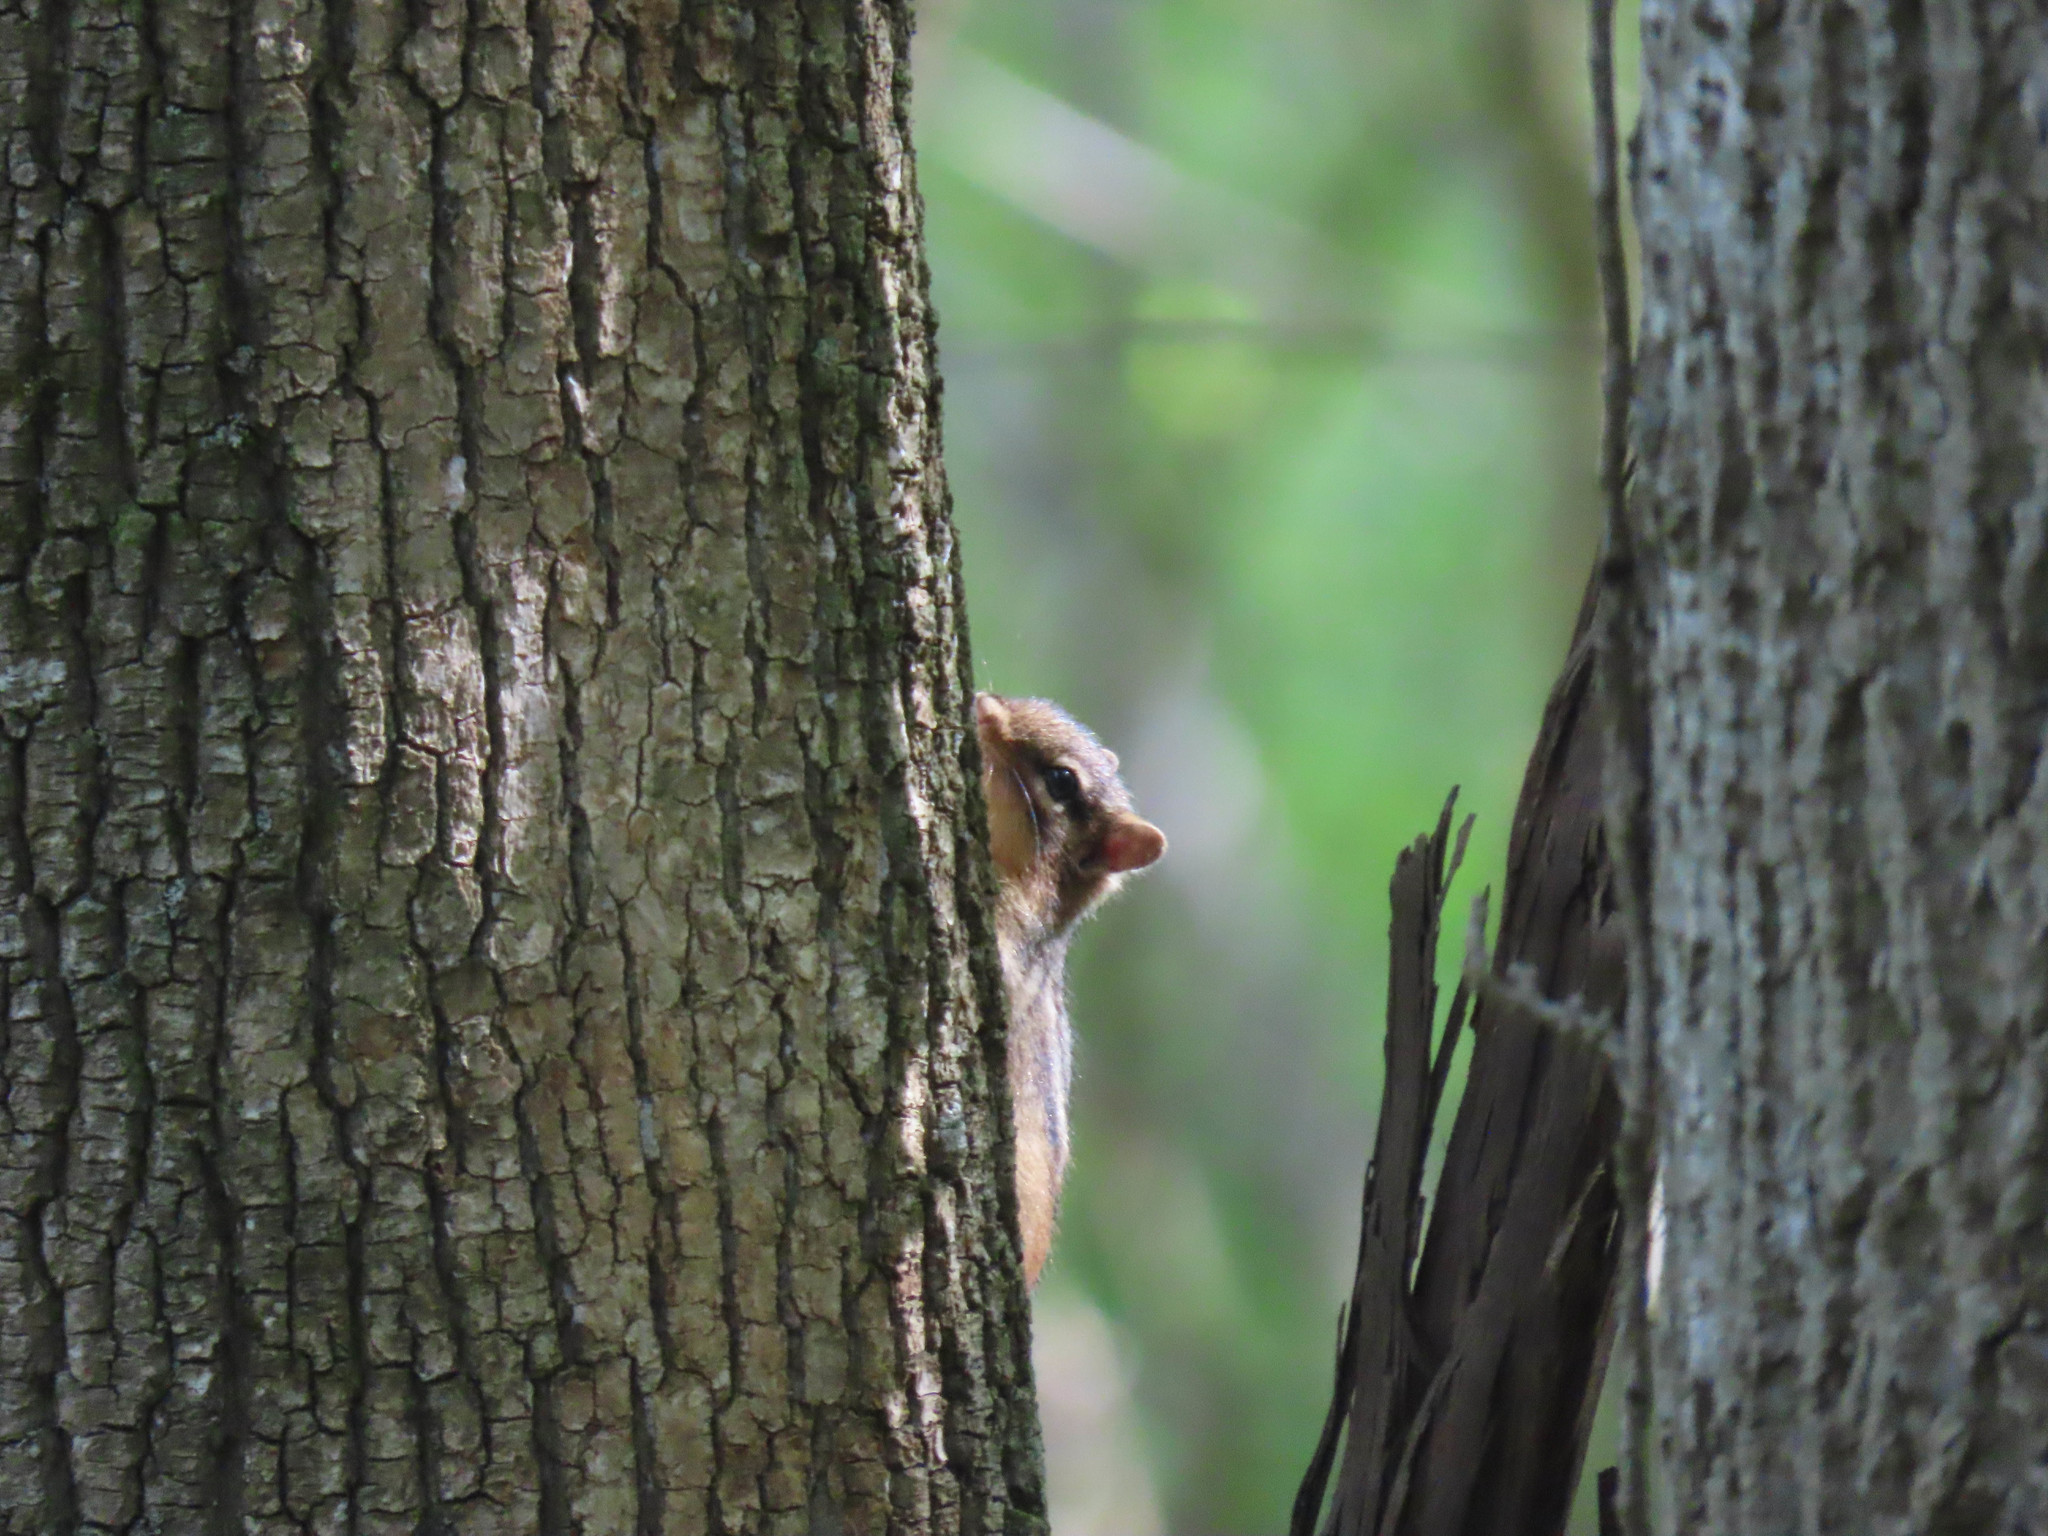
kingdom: Animalia
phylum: Chordata
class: Mammalia
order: Rodentia
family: Sciuridae
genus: Tamias
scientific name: Tamias striatus
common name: Eastern chipmunk
